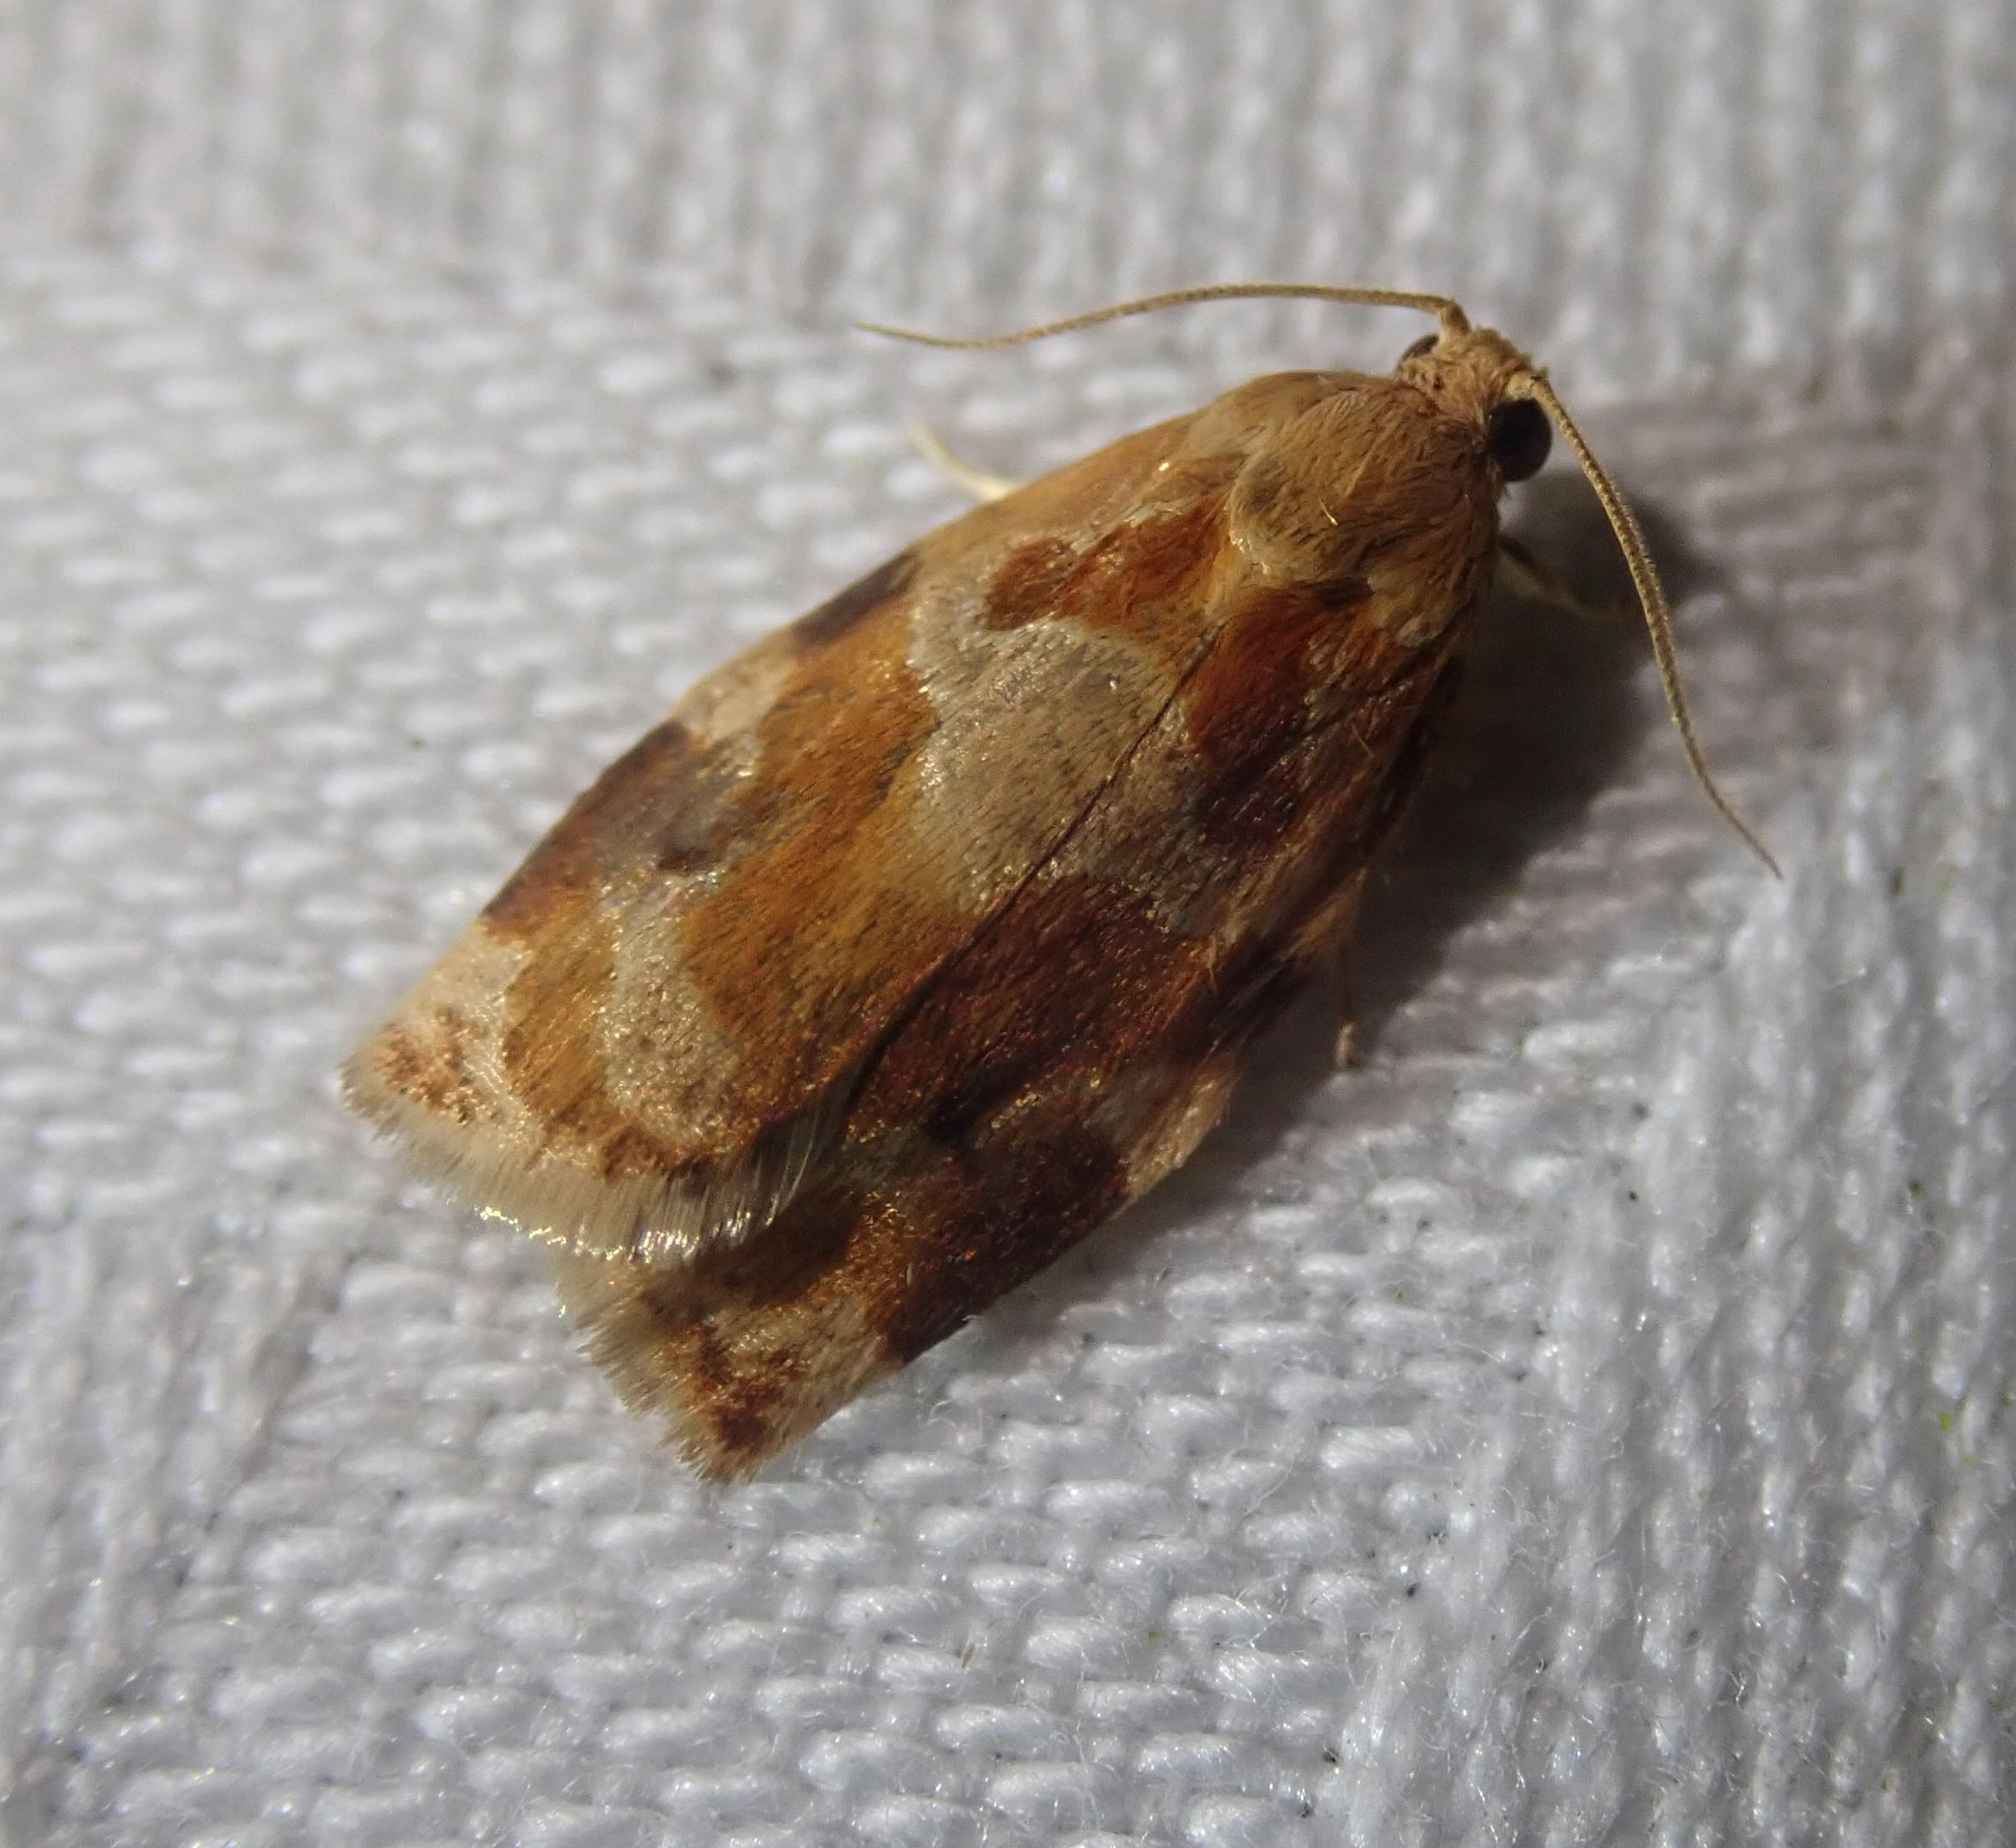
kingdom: Animalia
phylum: Arthropoda
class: Insecta
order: Lepidoptera
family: Tortricidae
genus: Archips
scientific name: Archips xylosteana
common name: Variegated golden tortrix
